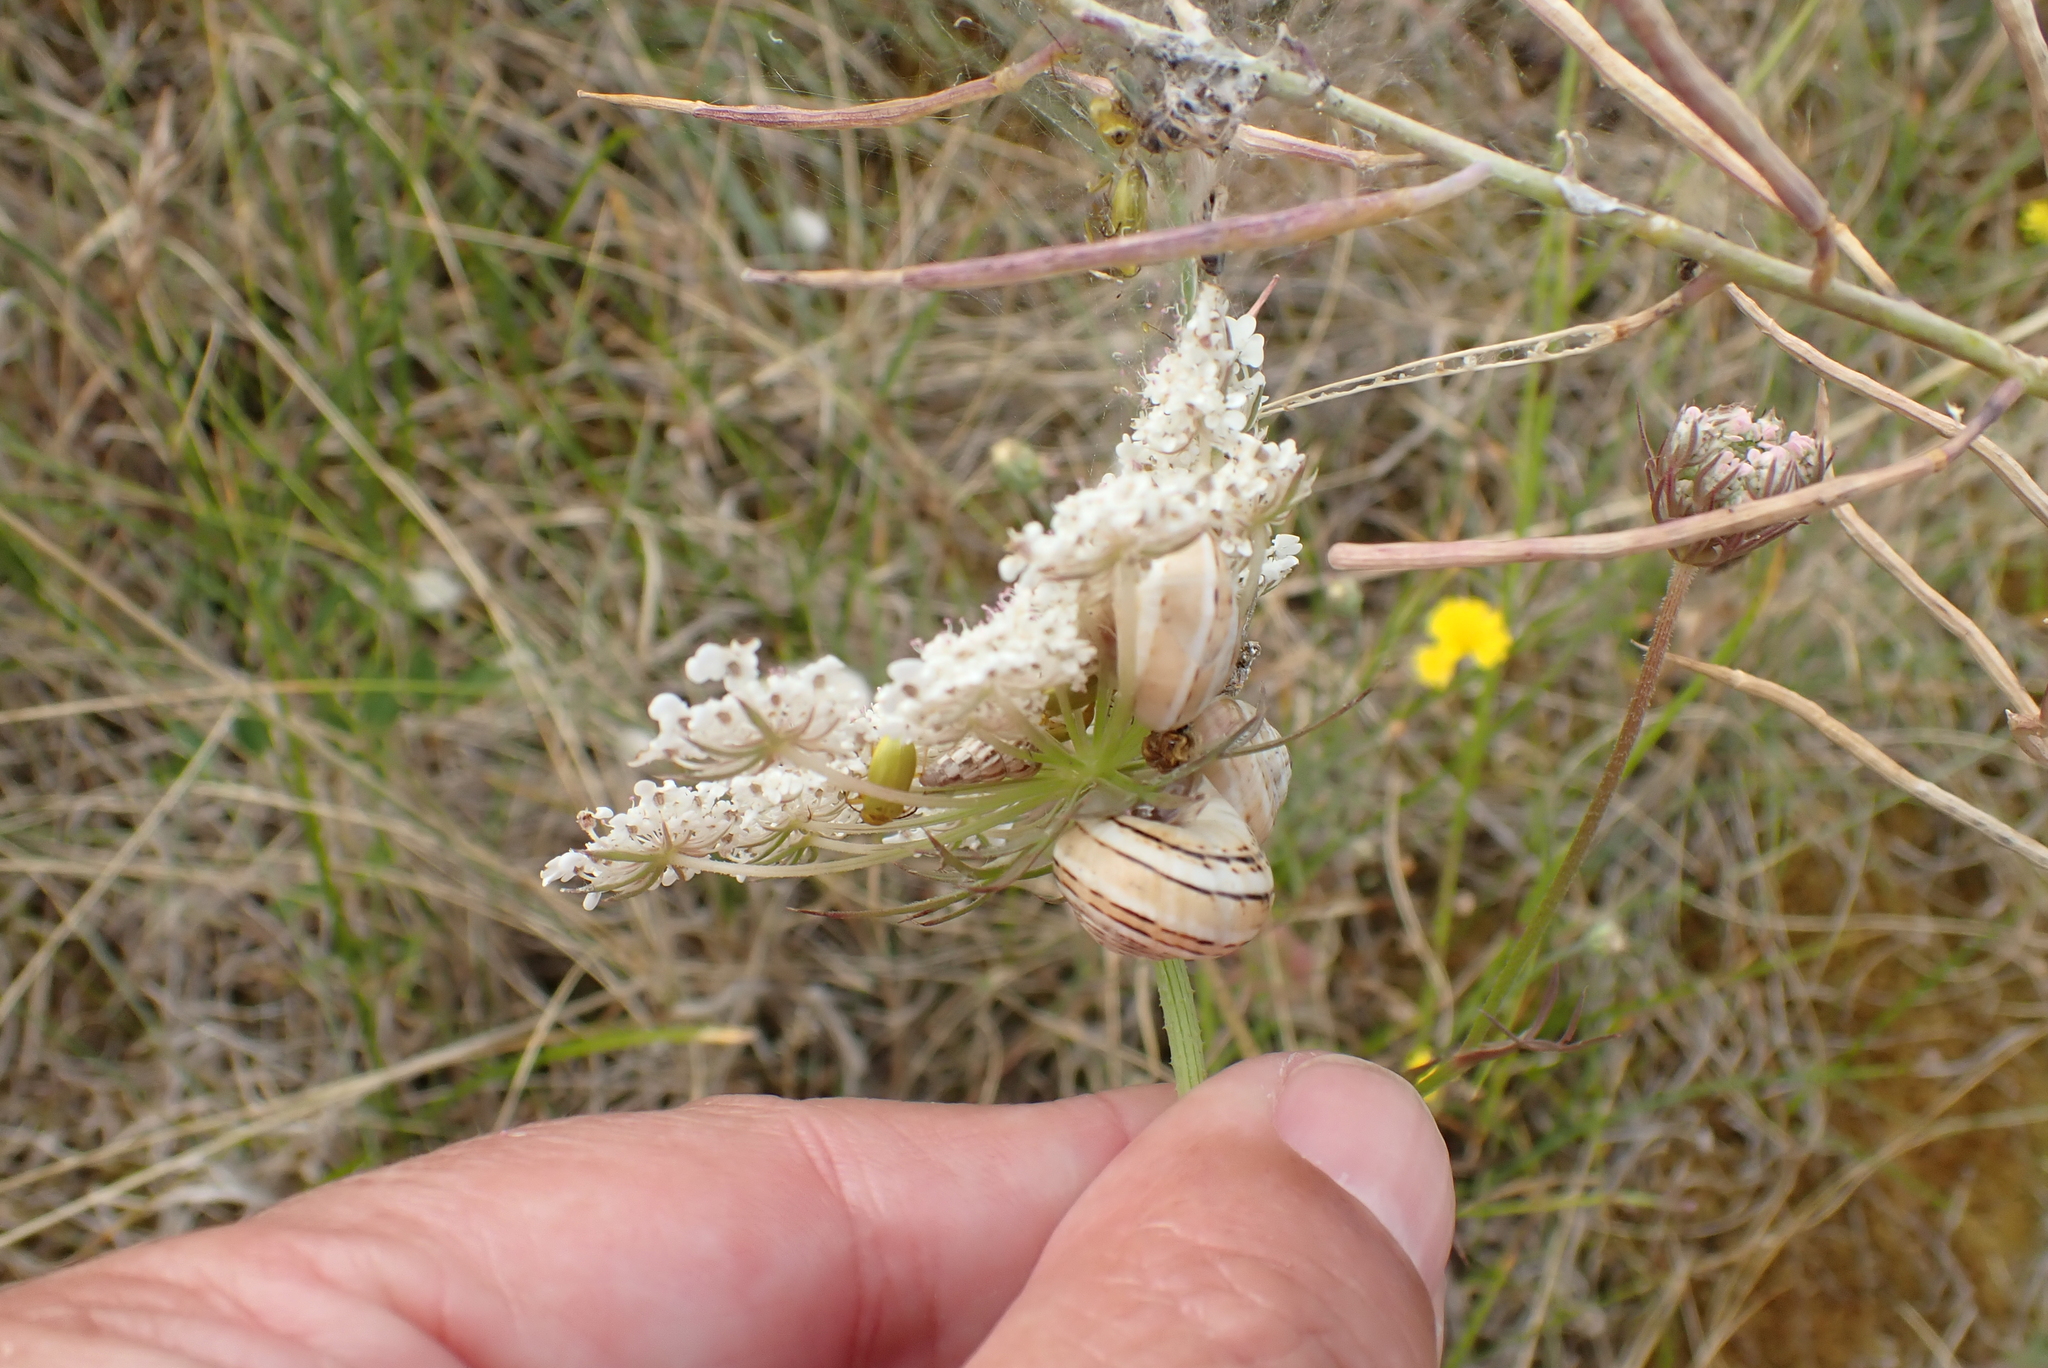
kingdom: Plantae
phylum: Tracheophyta
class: Magnoliopsida
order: Apiales
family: Apiaceae
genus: Daucus
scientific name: Daucus carota
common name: Wild carrot
